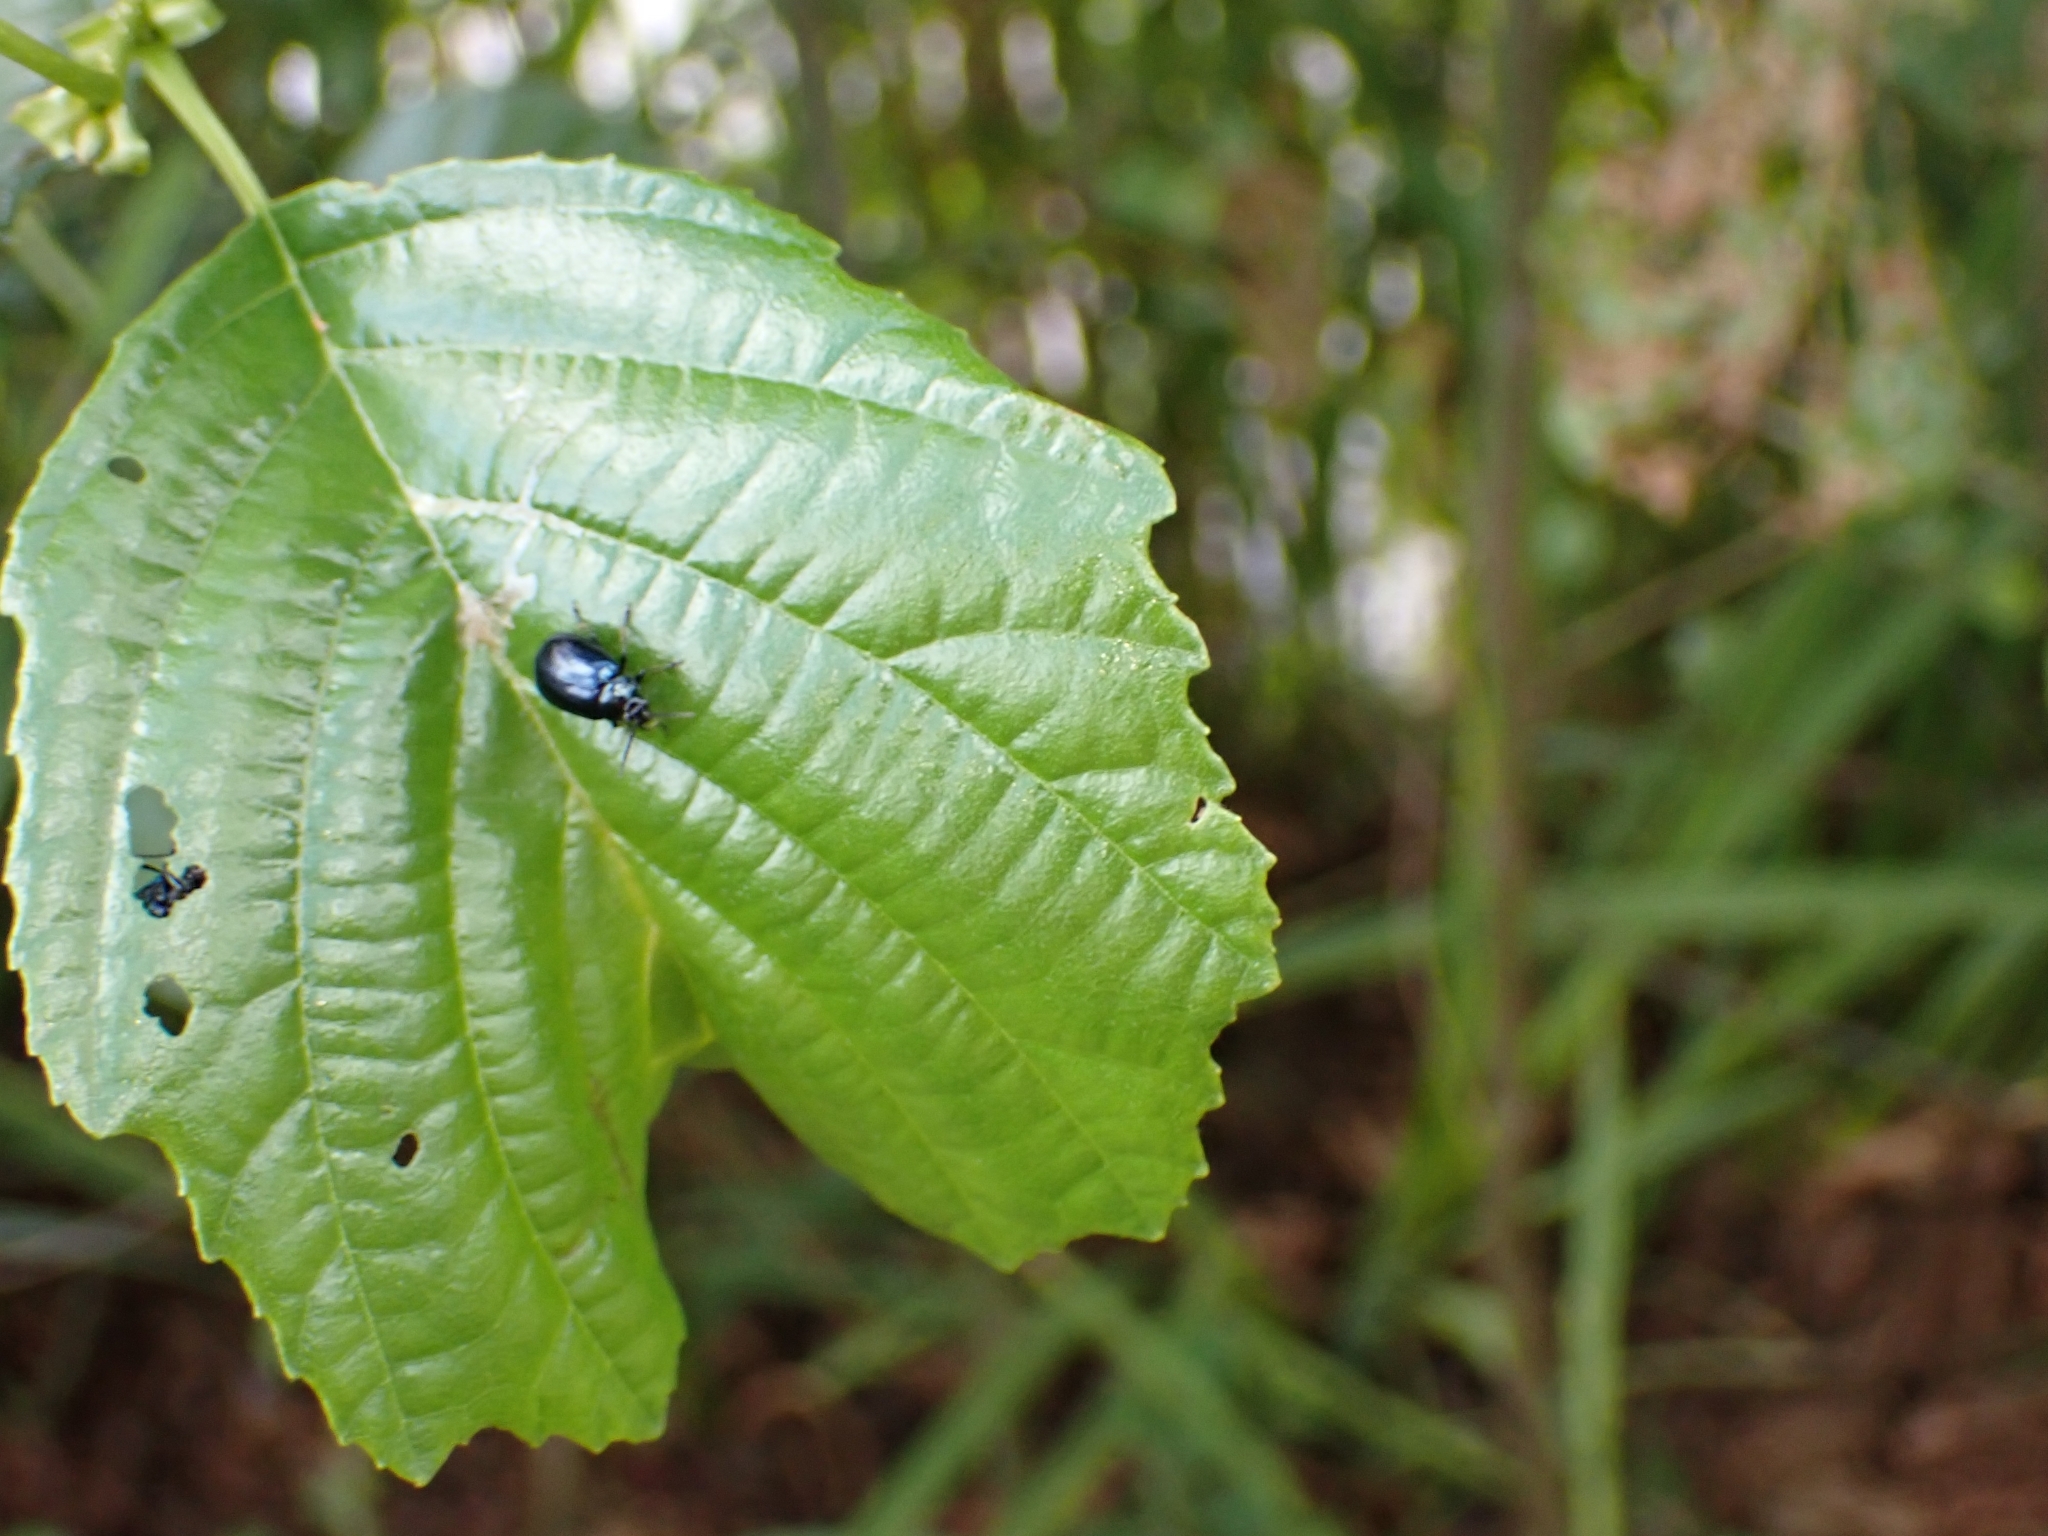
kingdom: Animalia
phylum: Arthropoda
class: Insecta
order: Coleoptera
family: Chrysomelidae
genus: Agelastica
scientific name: Agelastica alni
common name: Alder leaf beetle
